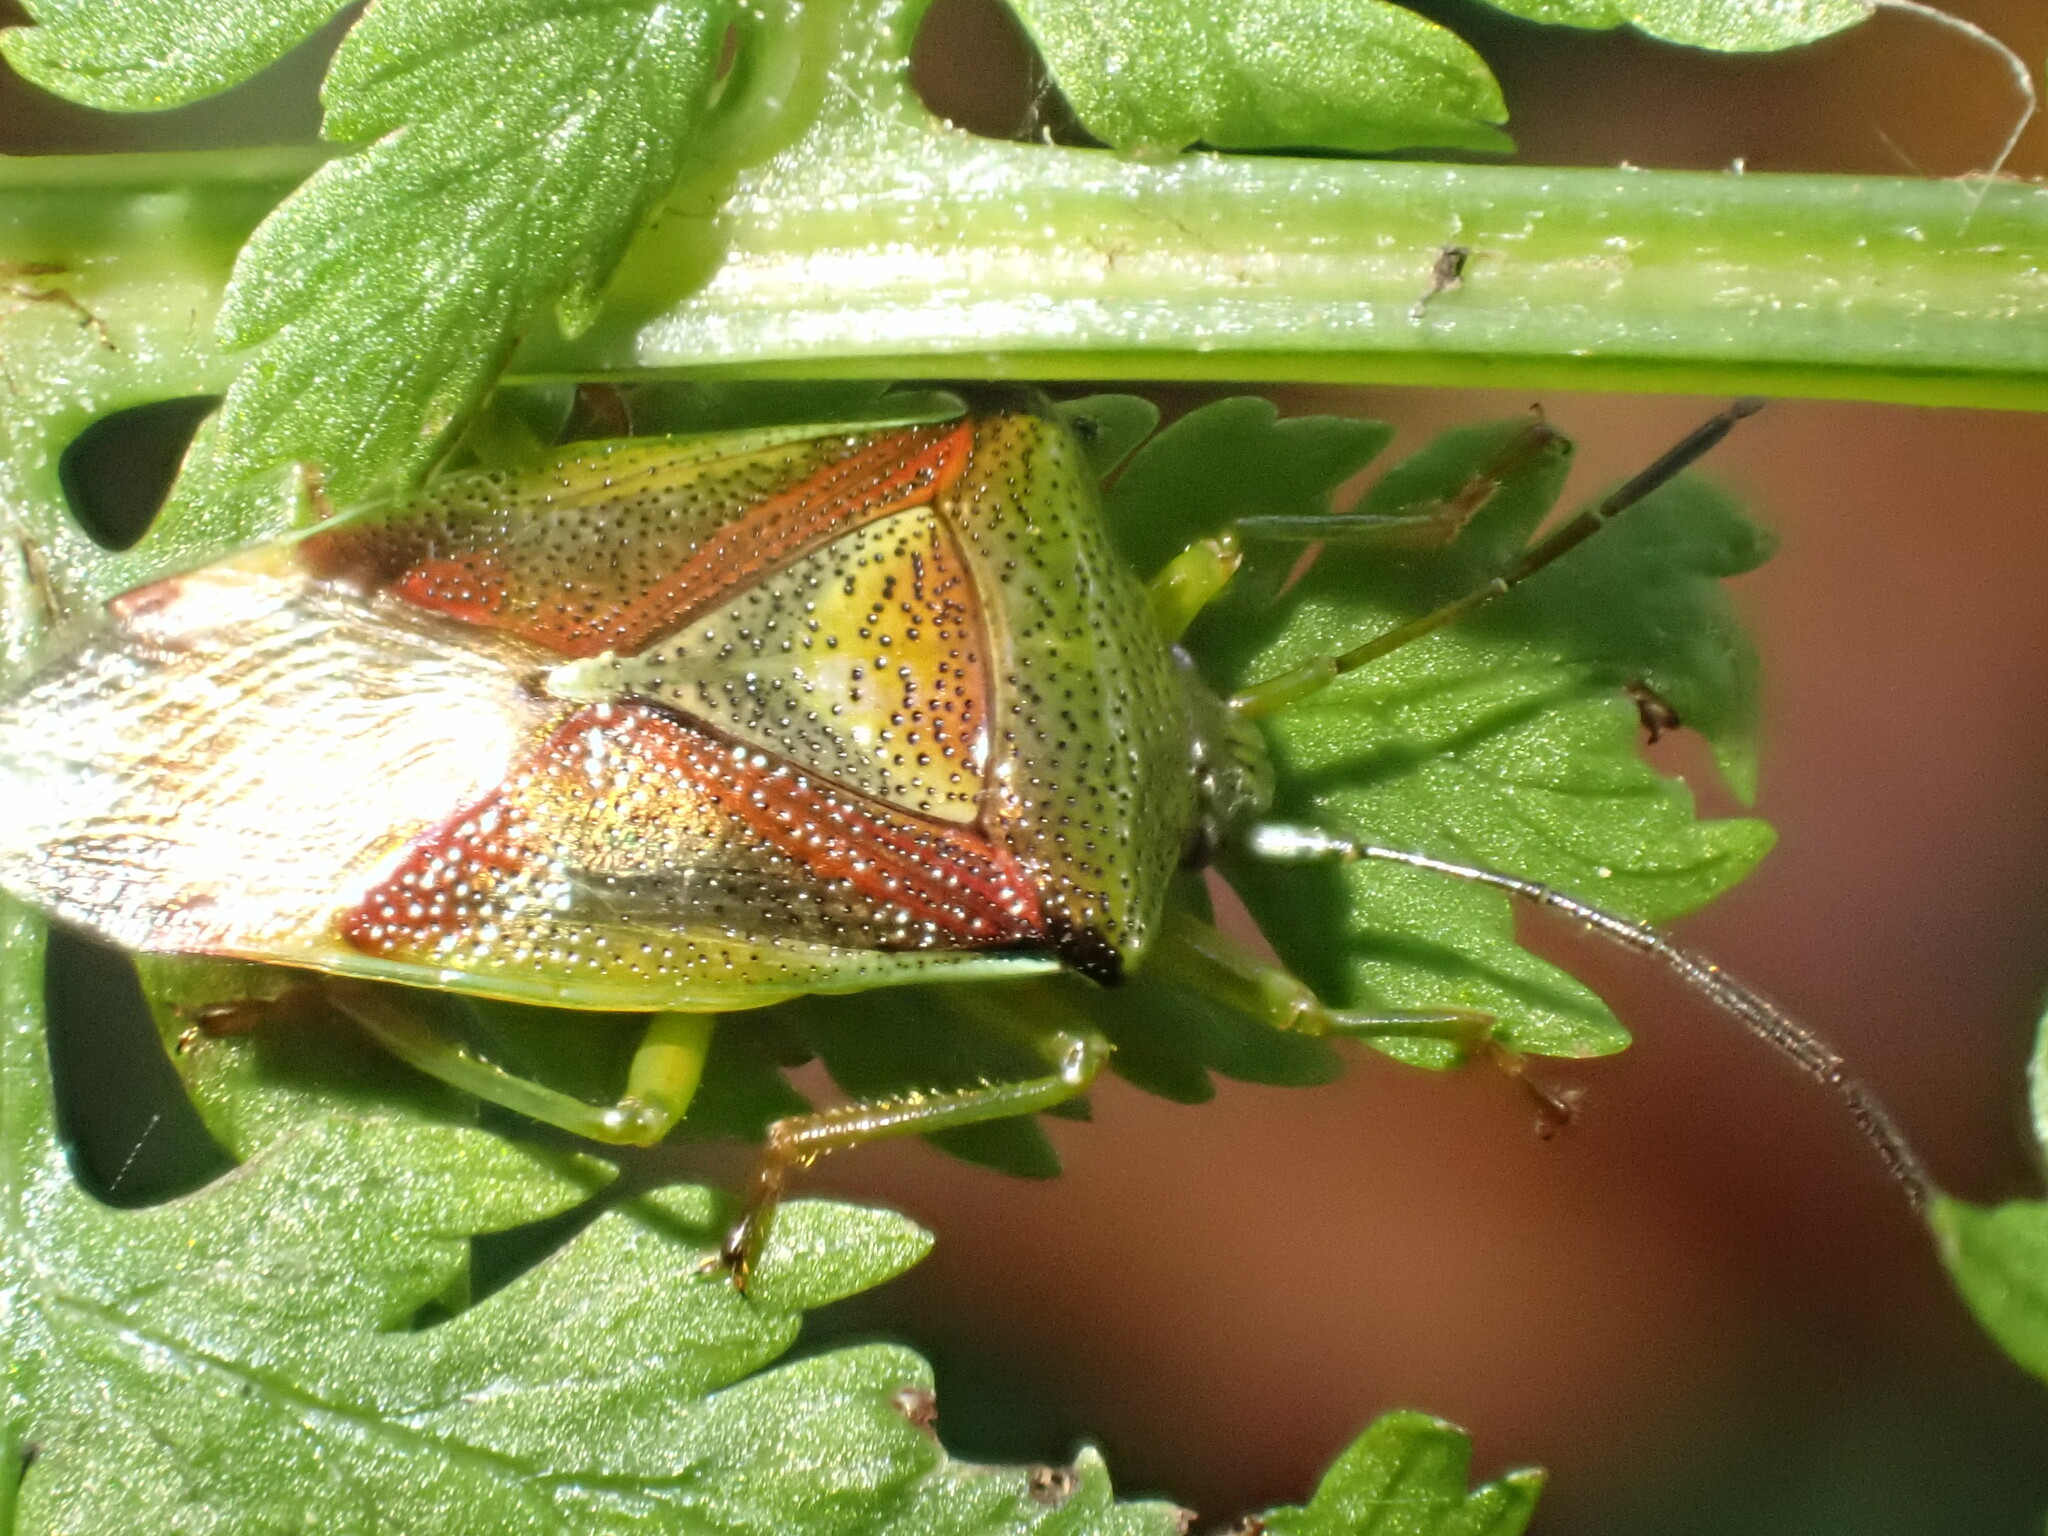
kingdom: Animalia
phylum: Arthropoda
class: Insecta
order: Hemiptera
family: Acanthosomatidae
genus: Elasmostethus
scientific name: Elasmostethus
